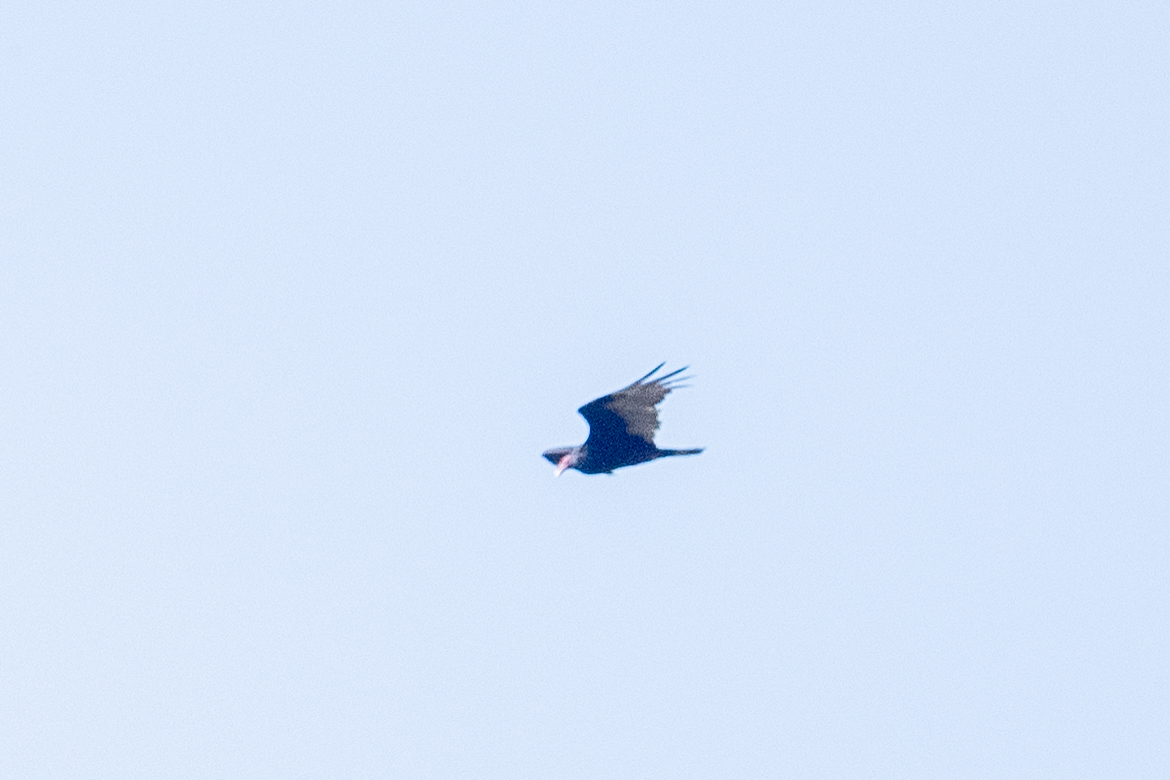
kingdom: Animalia
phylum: Chordata
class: Aves
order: Accipitriformes
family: Cathartidae
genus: Cathartes
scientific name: Cathartes aura
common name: Turkey vulture
